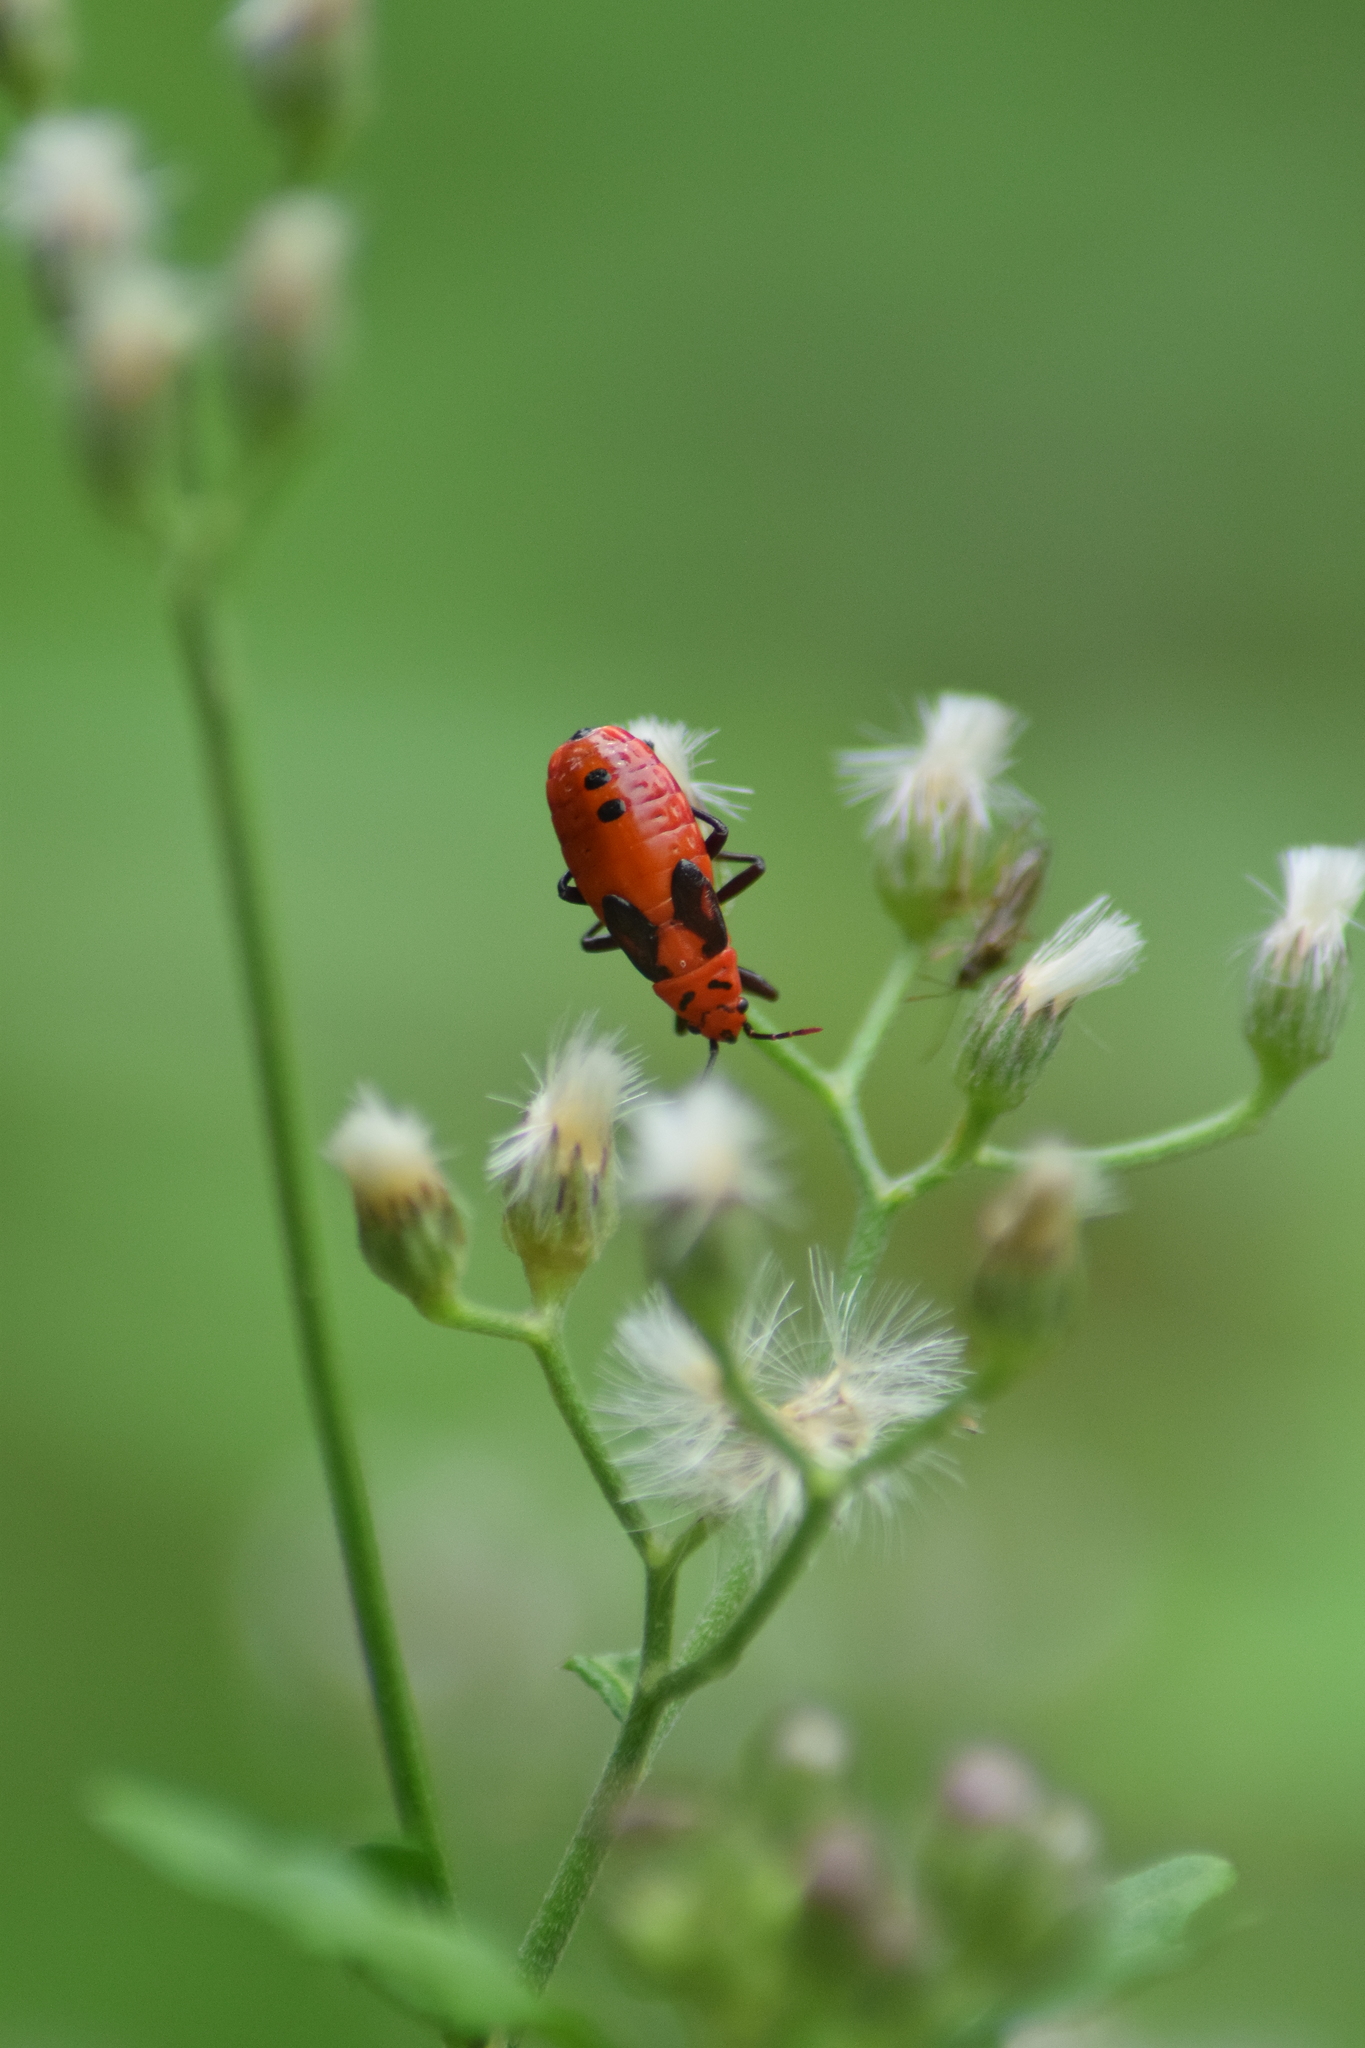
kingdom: Animalia
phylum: Arthropoda
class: Insecta
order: Hemiptera
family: Lygaeidae
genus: Spilostethus
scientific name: Spilostethus hospes
